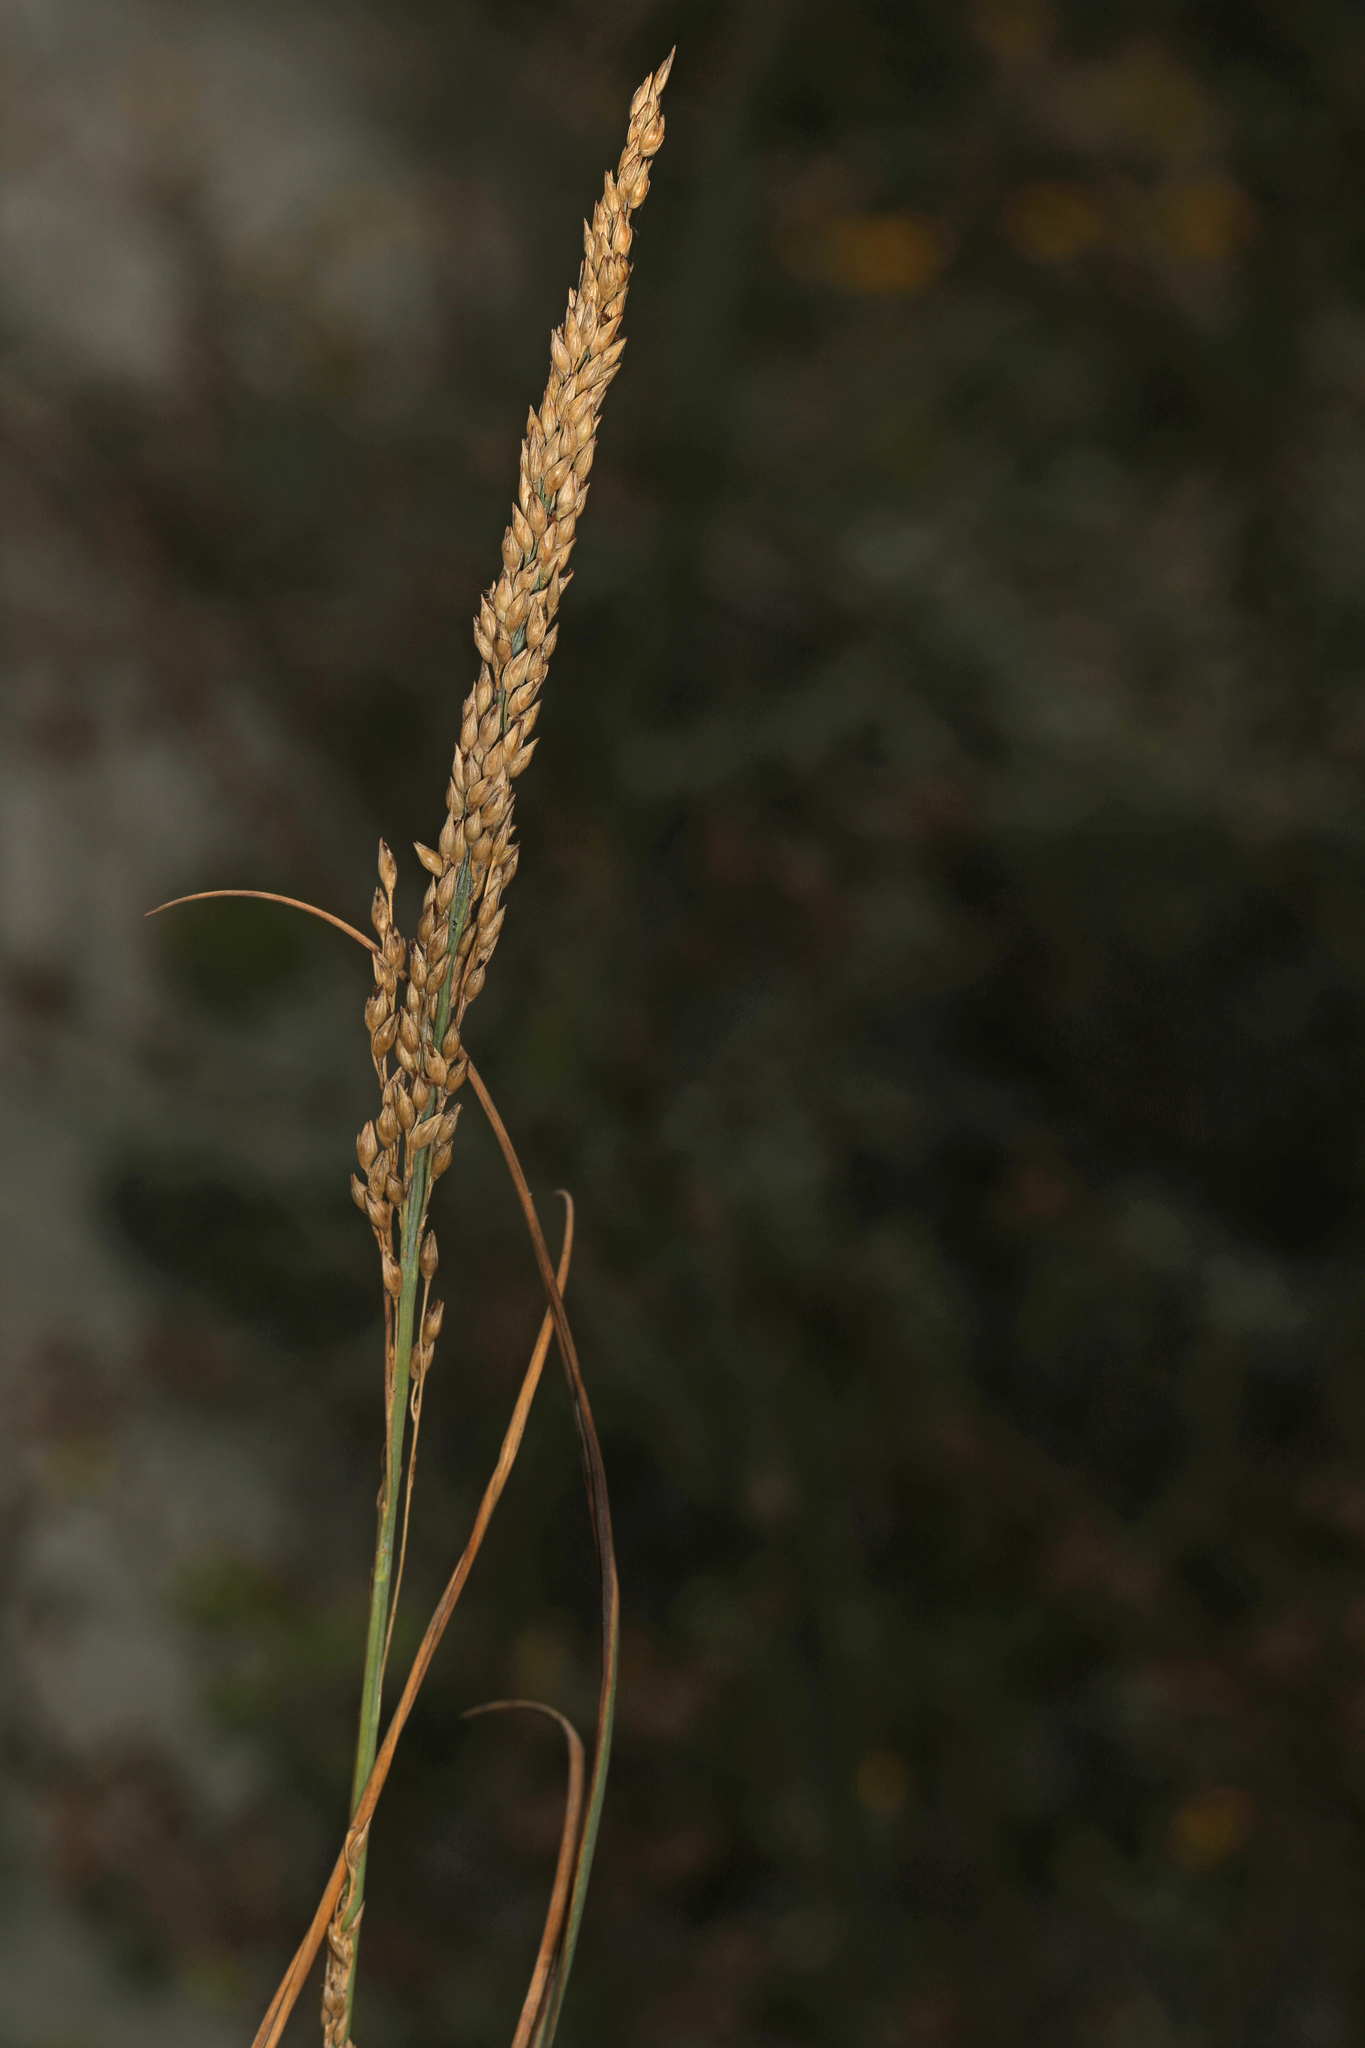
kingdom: Plantae
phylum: Tracheophyta
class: Liliopsida
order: Poales
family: Poaceae
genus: Sorghastrum
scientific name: Sorghastrum nutans
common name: Indian grass
